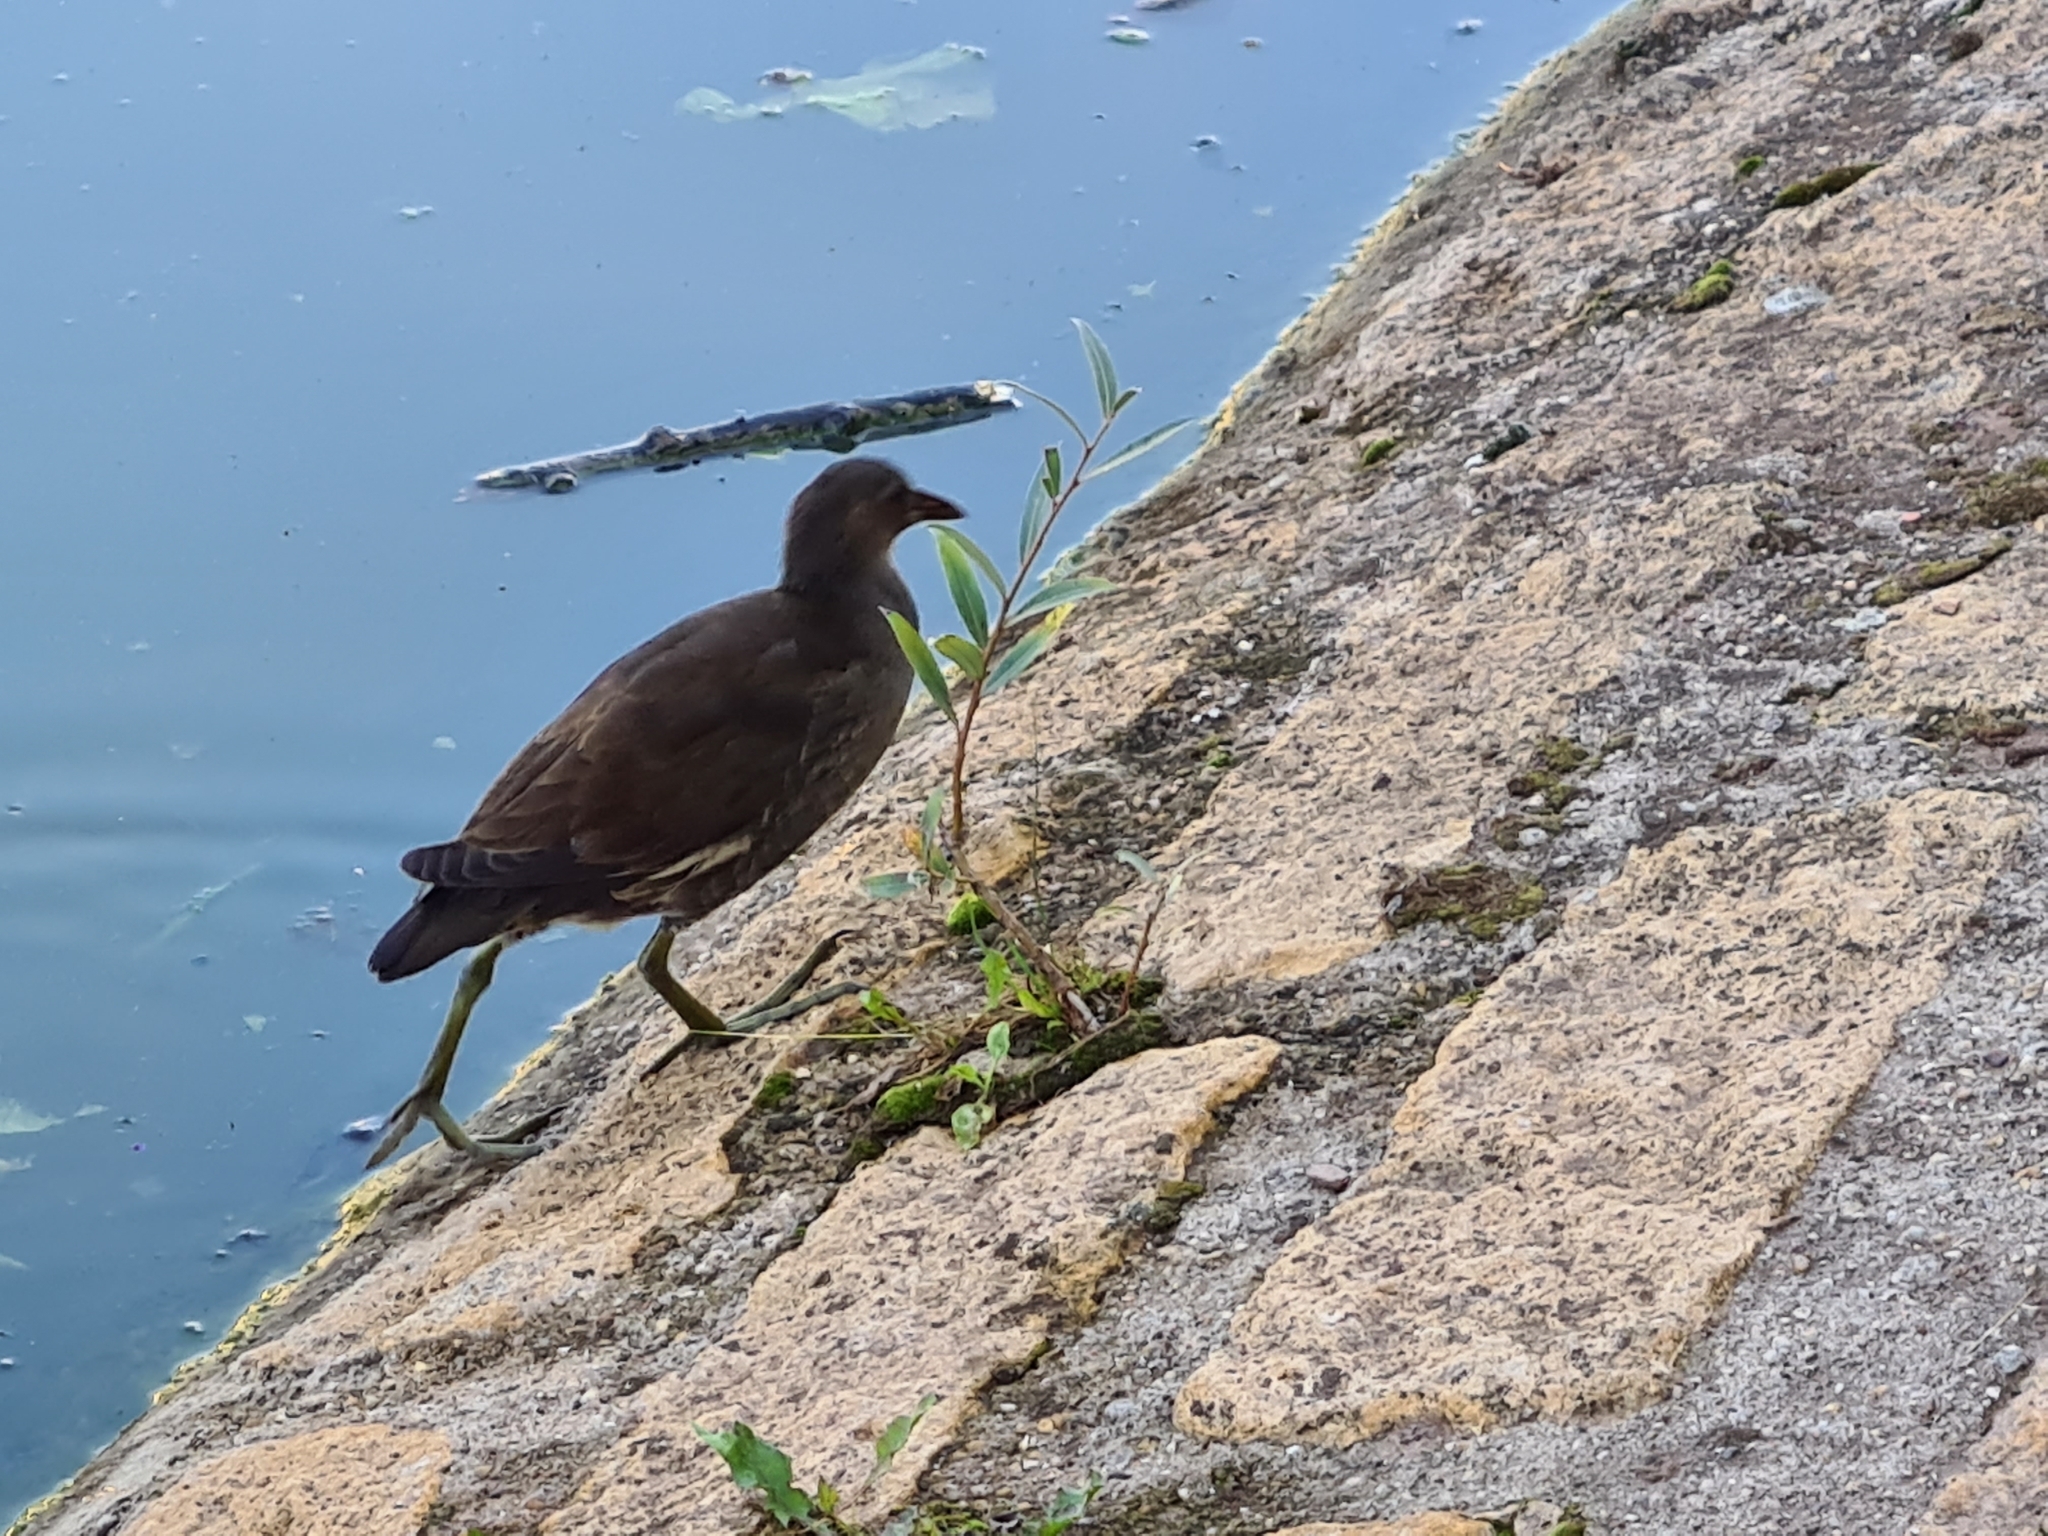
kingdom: Animalia
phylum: Chordata
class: Aves
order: Gruiformes
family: Rallidae
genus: Gallinula
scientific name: Gallinula chloropus
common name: Common moorhen
